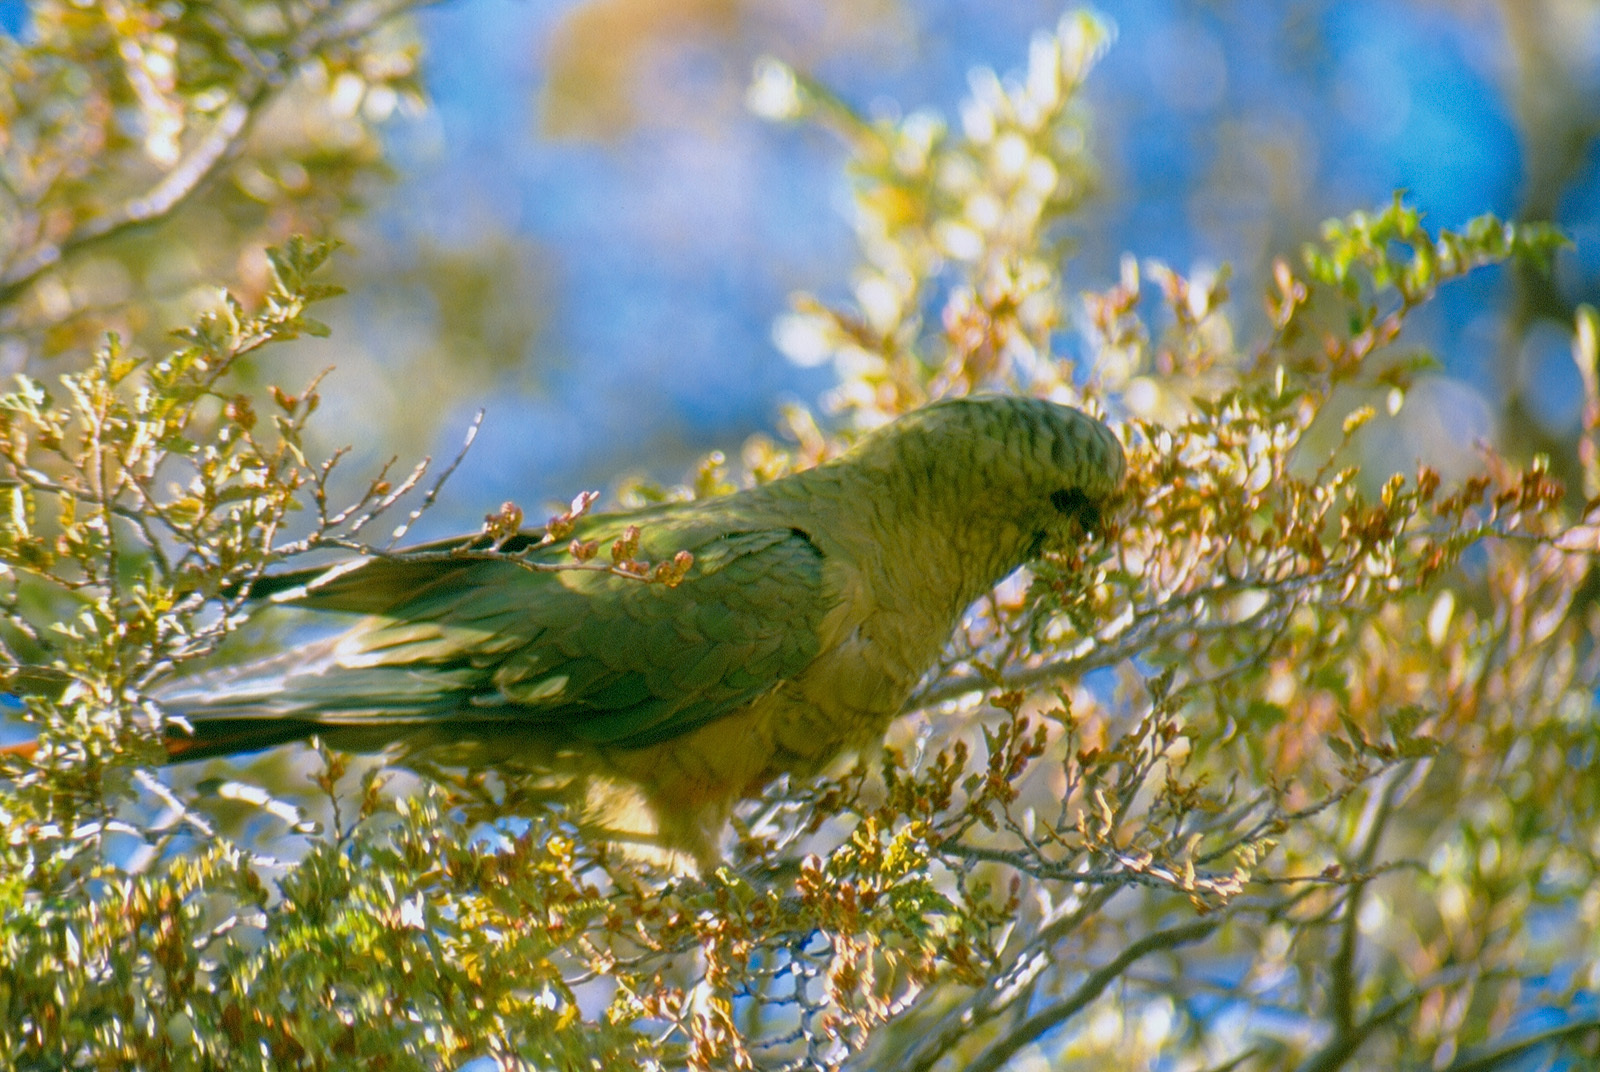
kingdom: Animalia
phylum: Chordata
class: Aves
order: Psittaciformes
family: Psittacidae
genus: Enicognathus
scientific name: Enicognathus ferrugineus
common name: Austral parakeet
